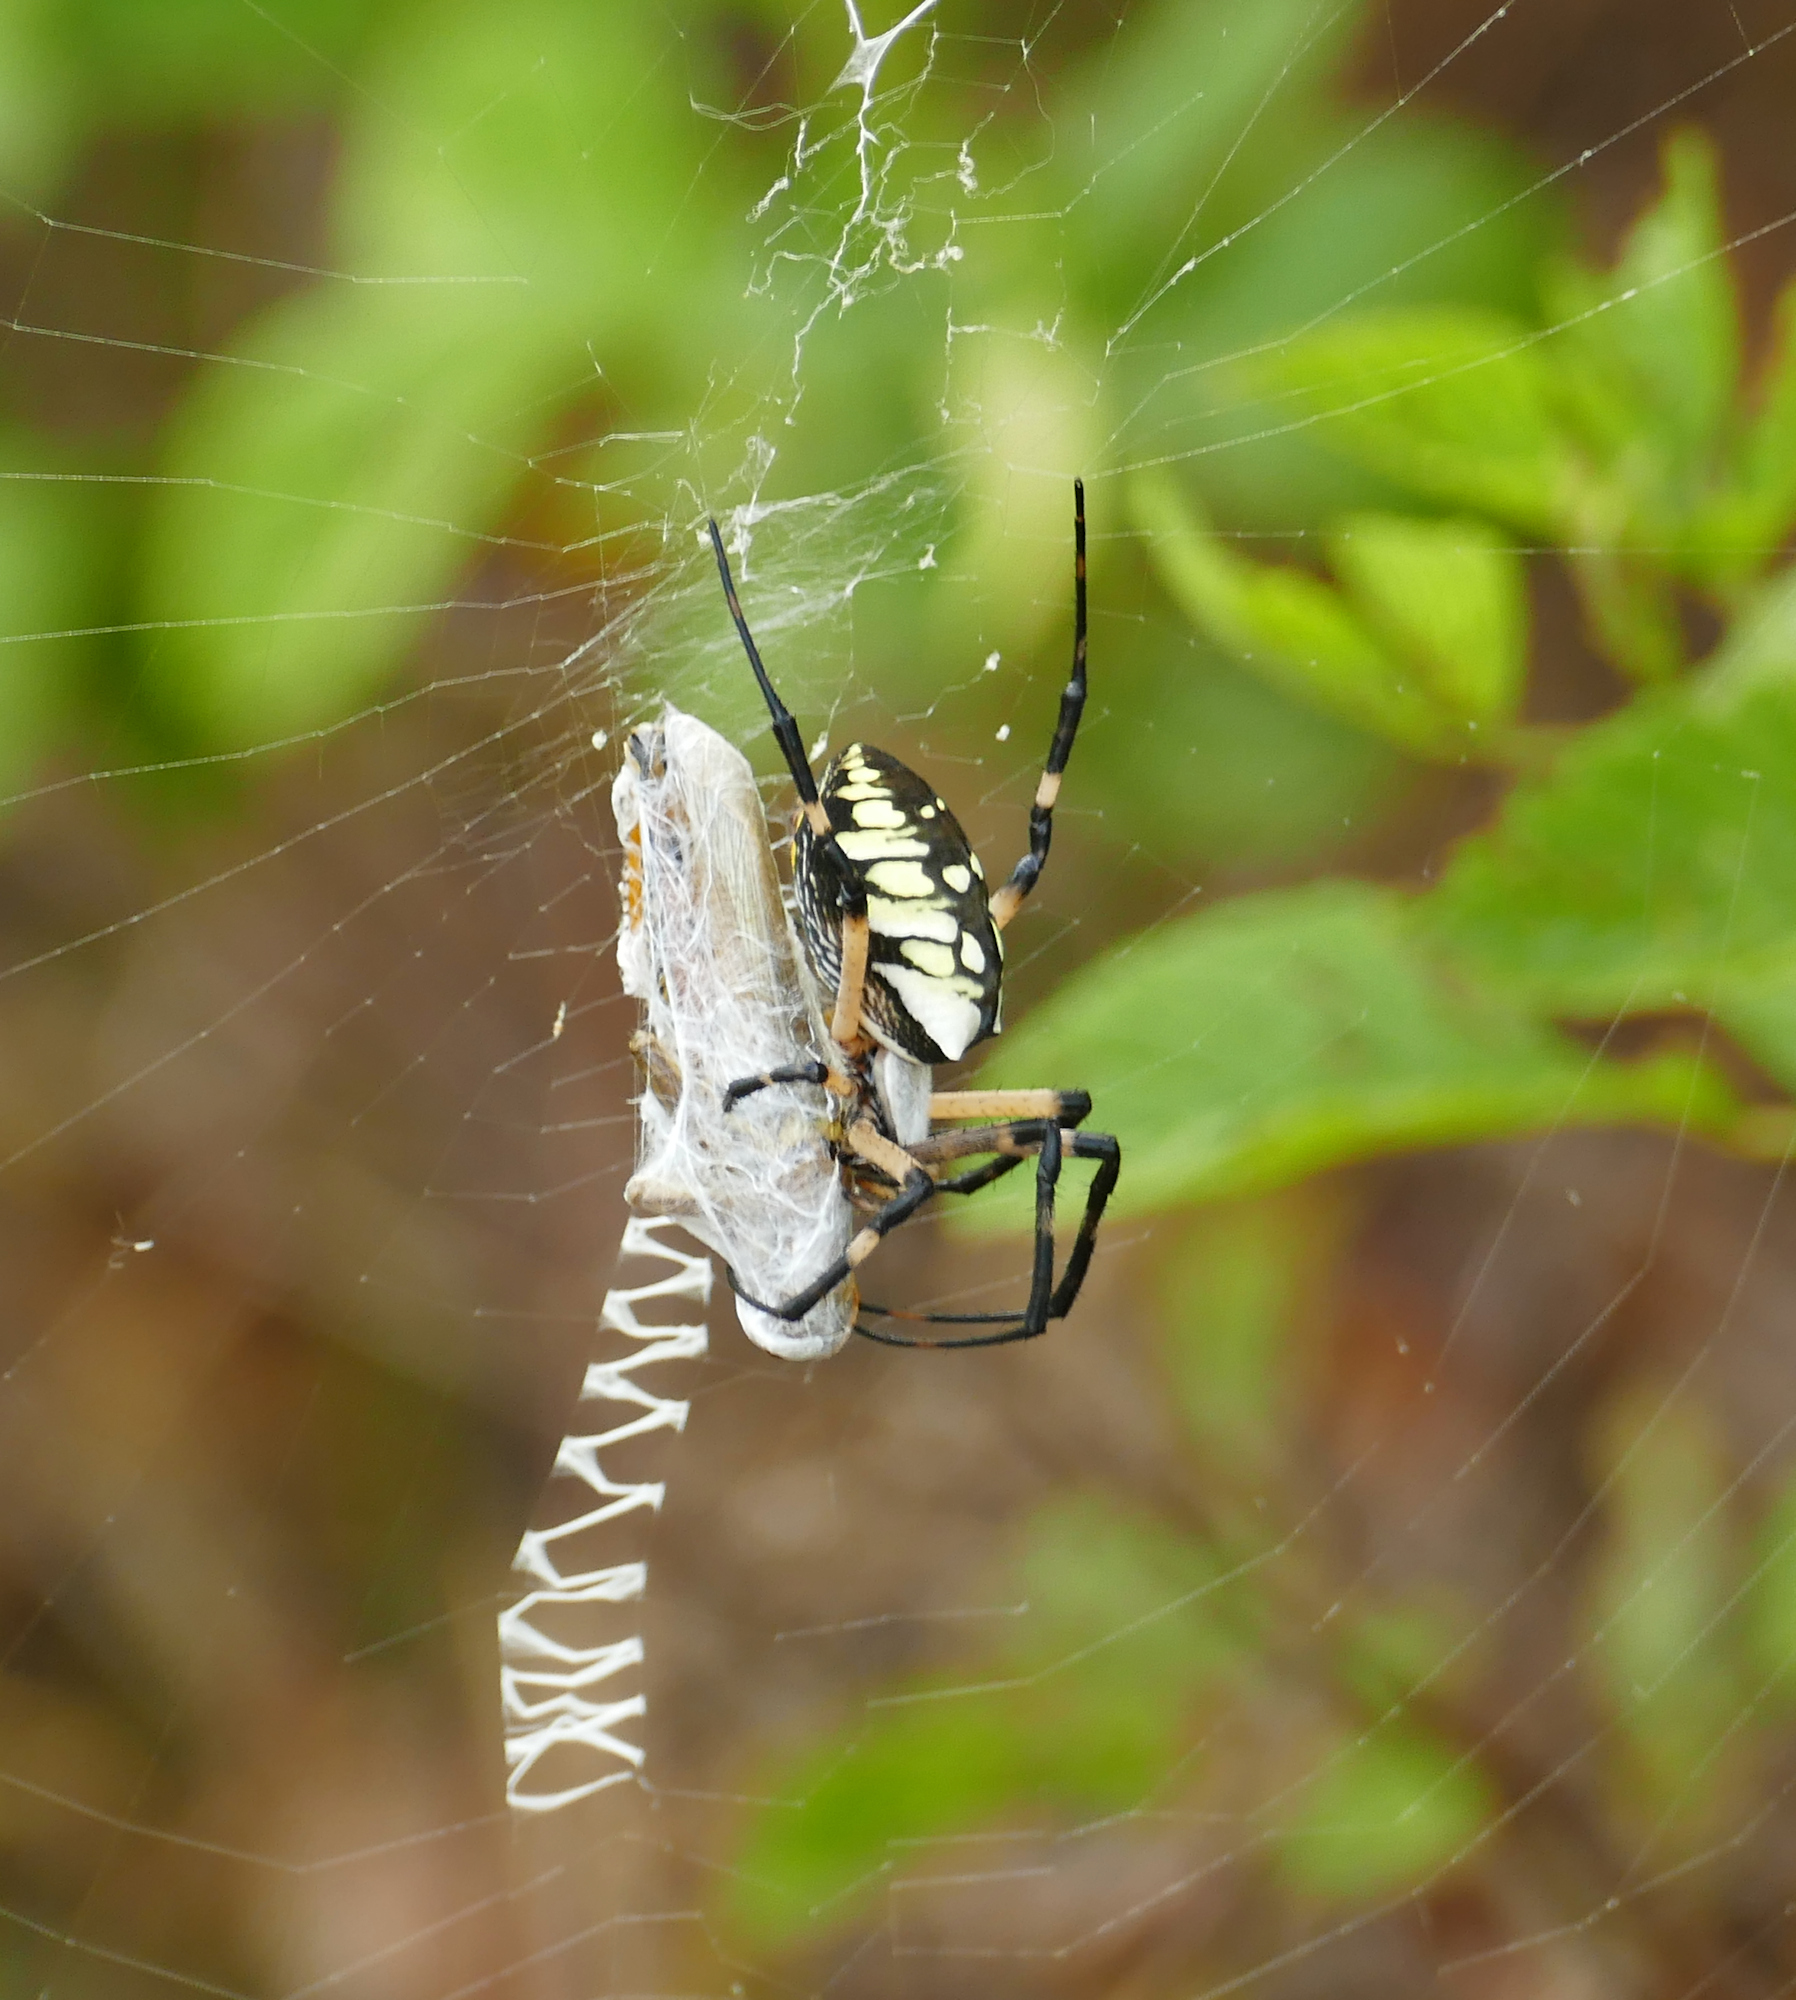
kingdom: Animalia
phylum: Arthropoda
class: Arachnida
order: Araneae
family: Araneidae
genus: Argiope
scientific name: Argiope aurantia
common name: Orb weavers
